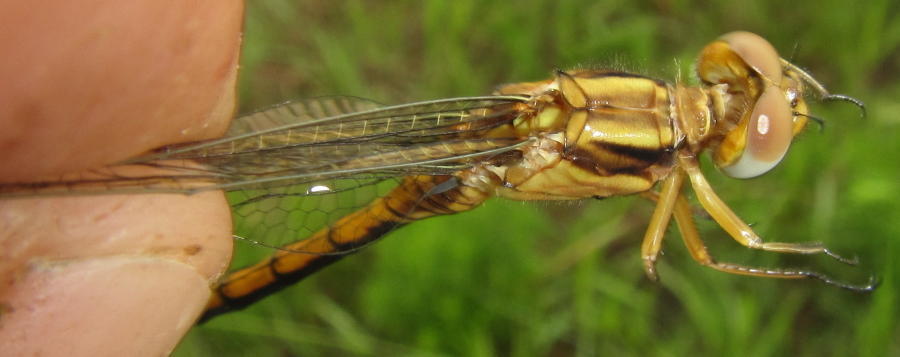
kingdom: Animalia
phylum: Arthropoda
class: Insecta
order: Odonata
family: Libellulidae
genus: Orthetrum
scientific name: Orthetrum machadoi
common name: Highland skimmer
